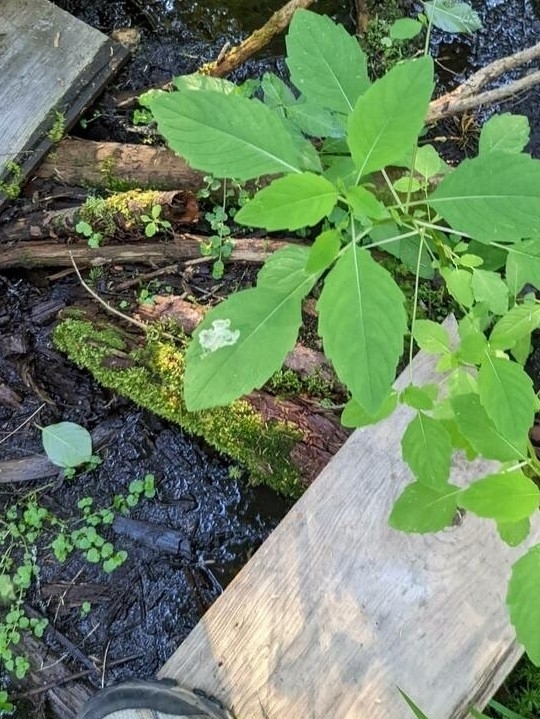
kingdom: Animalia
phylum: Arthropoda
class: Insecta
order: Diptera
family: Agromyzidae
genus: Phytoliriomyza
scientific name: Phytoliriomyza melampyga
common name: Jewelweed leaf-miner fly
